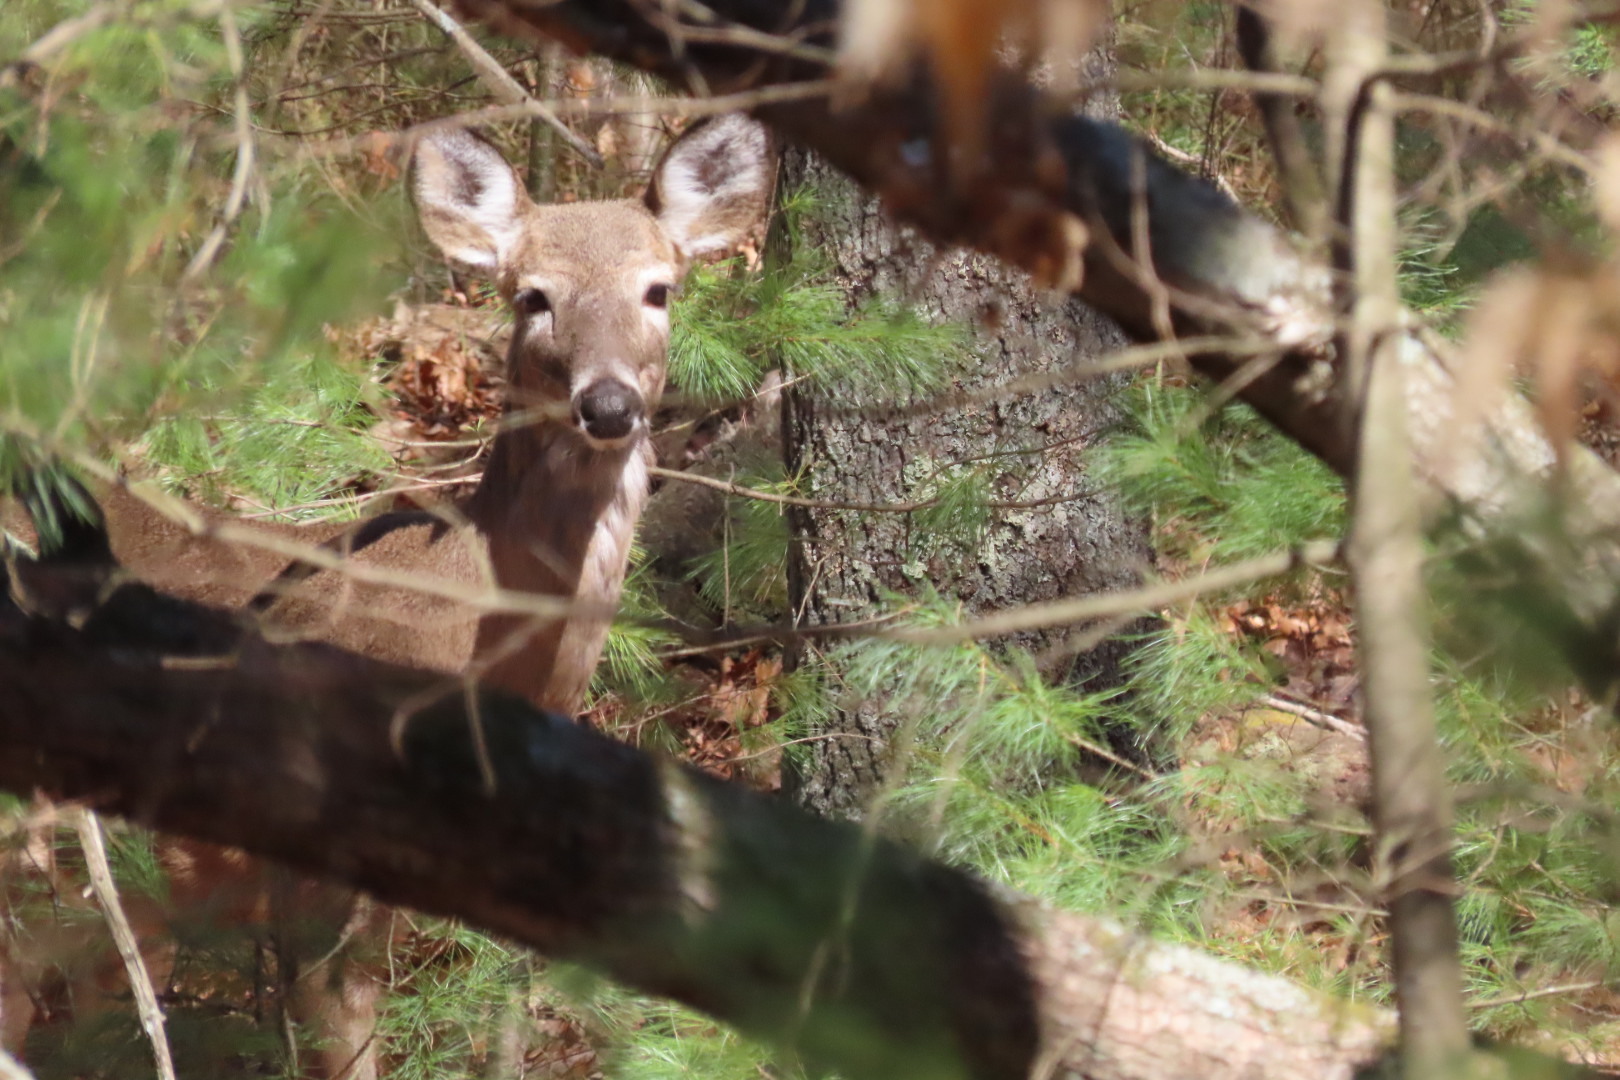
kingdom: Animalia
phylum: Chordata
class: Mammalia
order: Artiodactyla
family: Cervidae
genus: Odocoileus
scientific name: Odocoileus virginianus
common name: White-tailed deer
